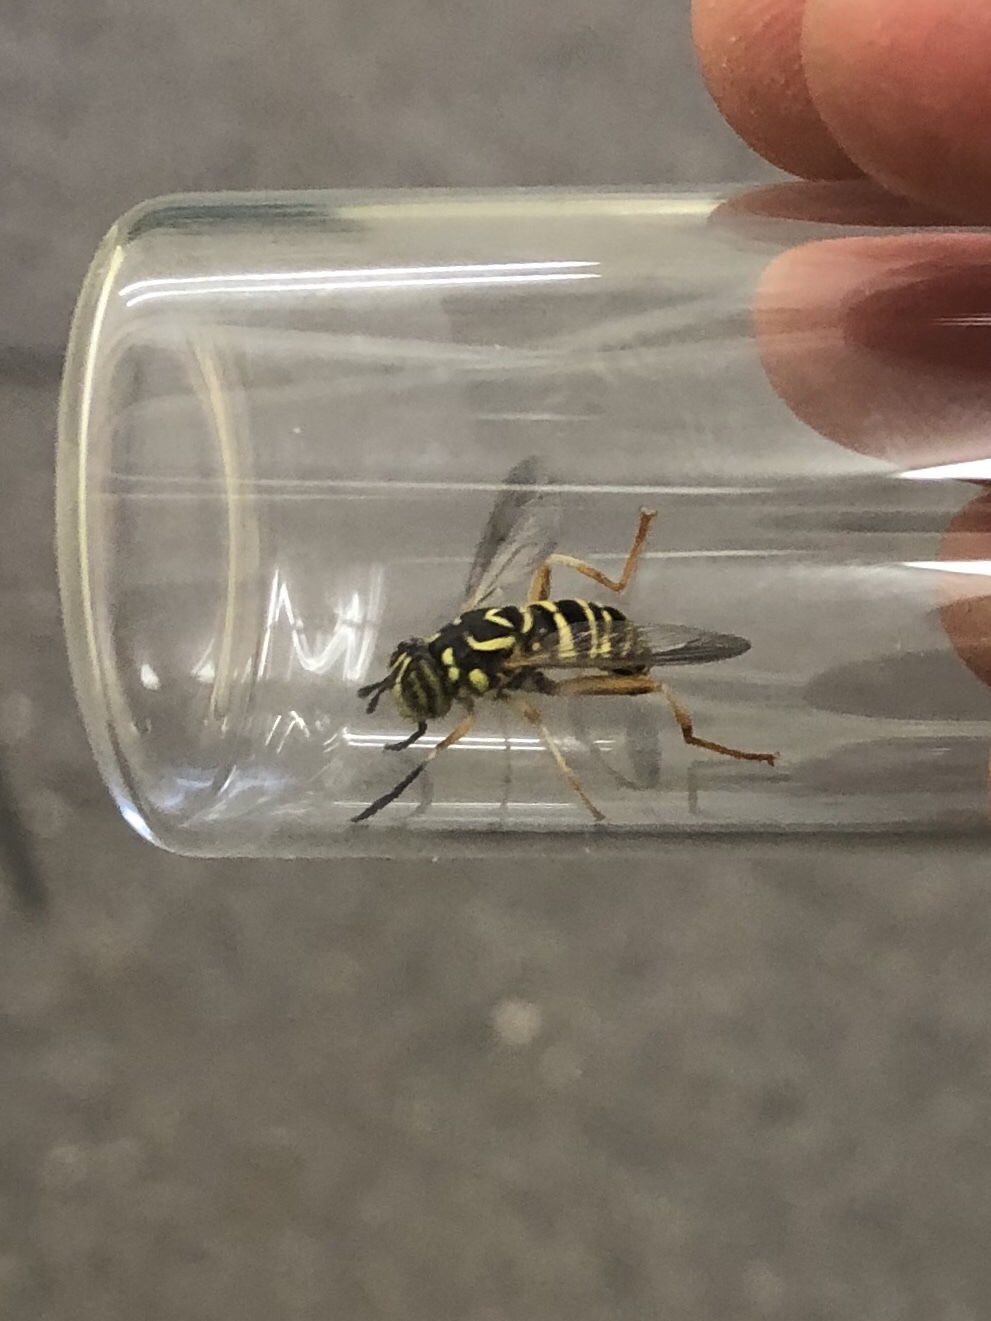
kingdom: Animalia
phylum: Arthropoda
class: Insecta
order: Diptera
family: Syrphidae
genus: Spilomyia
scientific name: Spilomyia longicornis
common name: Eastern hornet fly
